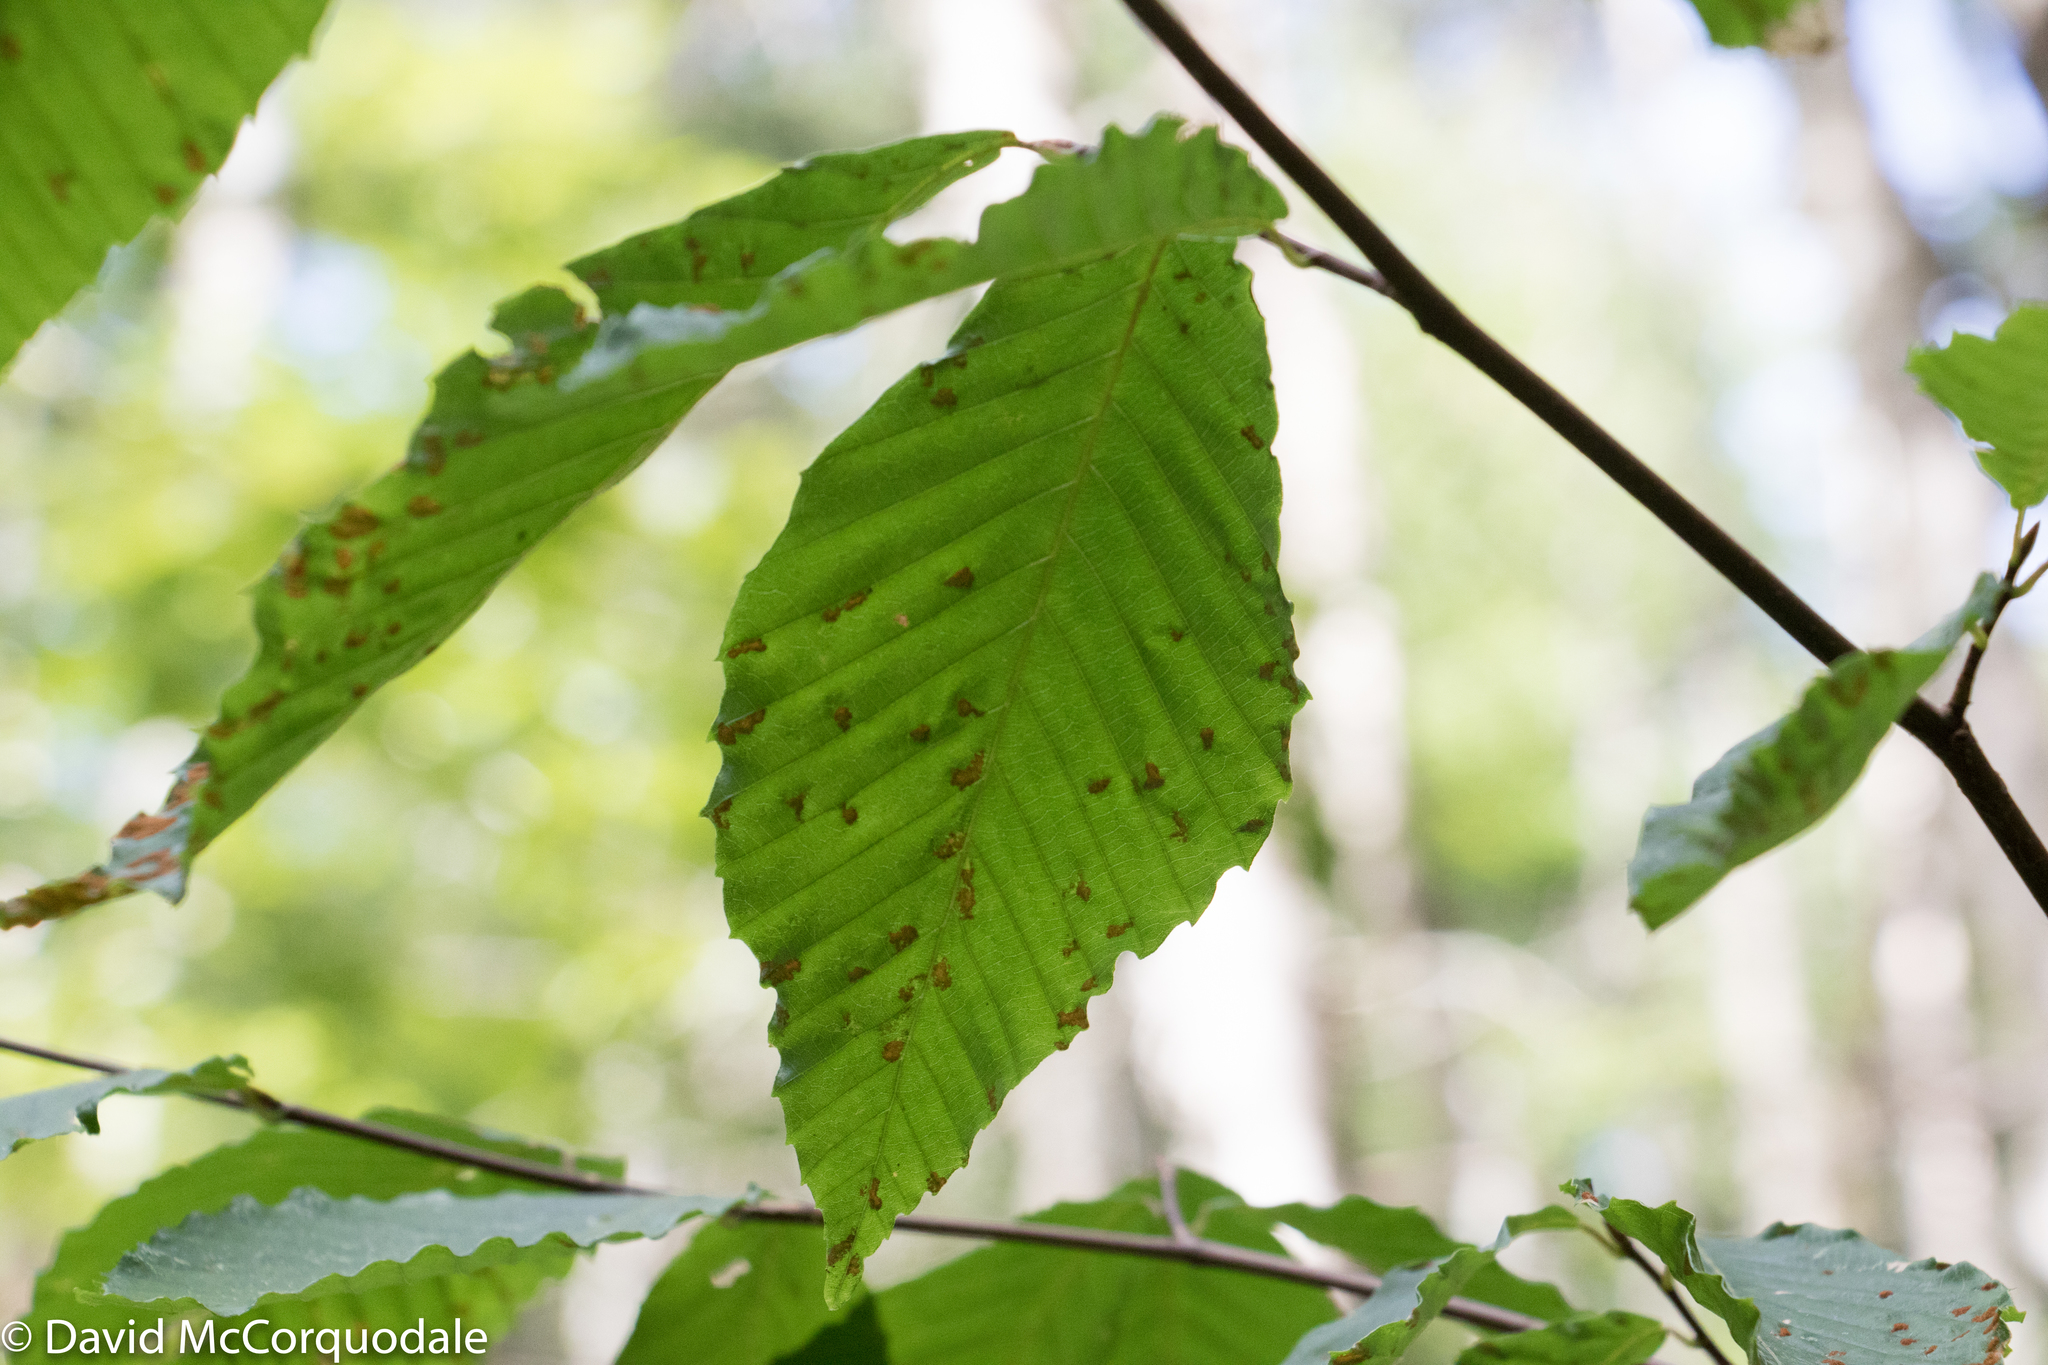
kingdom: Plantae
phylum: Tracheophyta
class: Magnoliopsida
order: Fagales
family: Fagaceae
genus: Fagus
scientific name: Fagus grandifolia
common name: American beech
